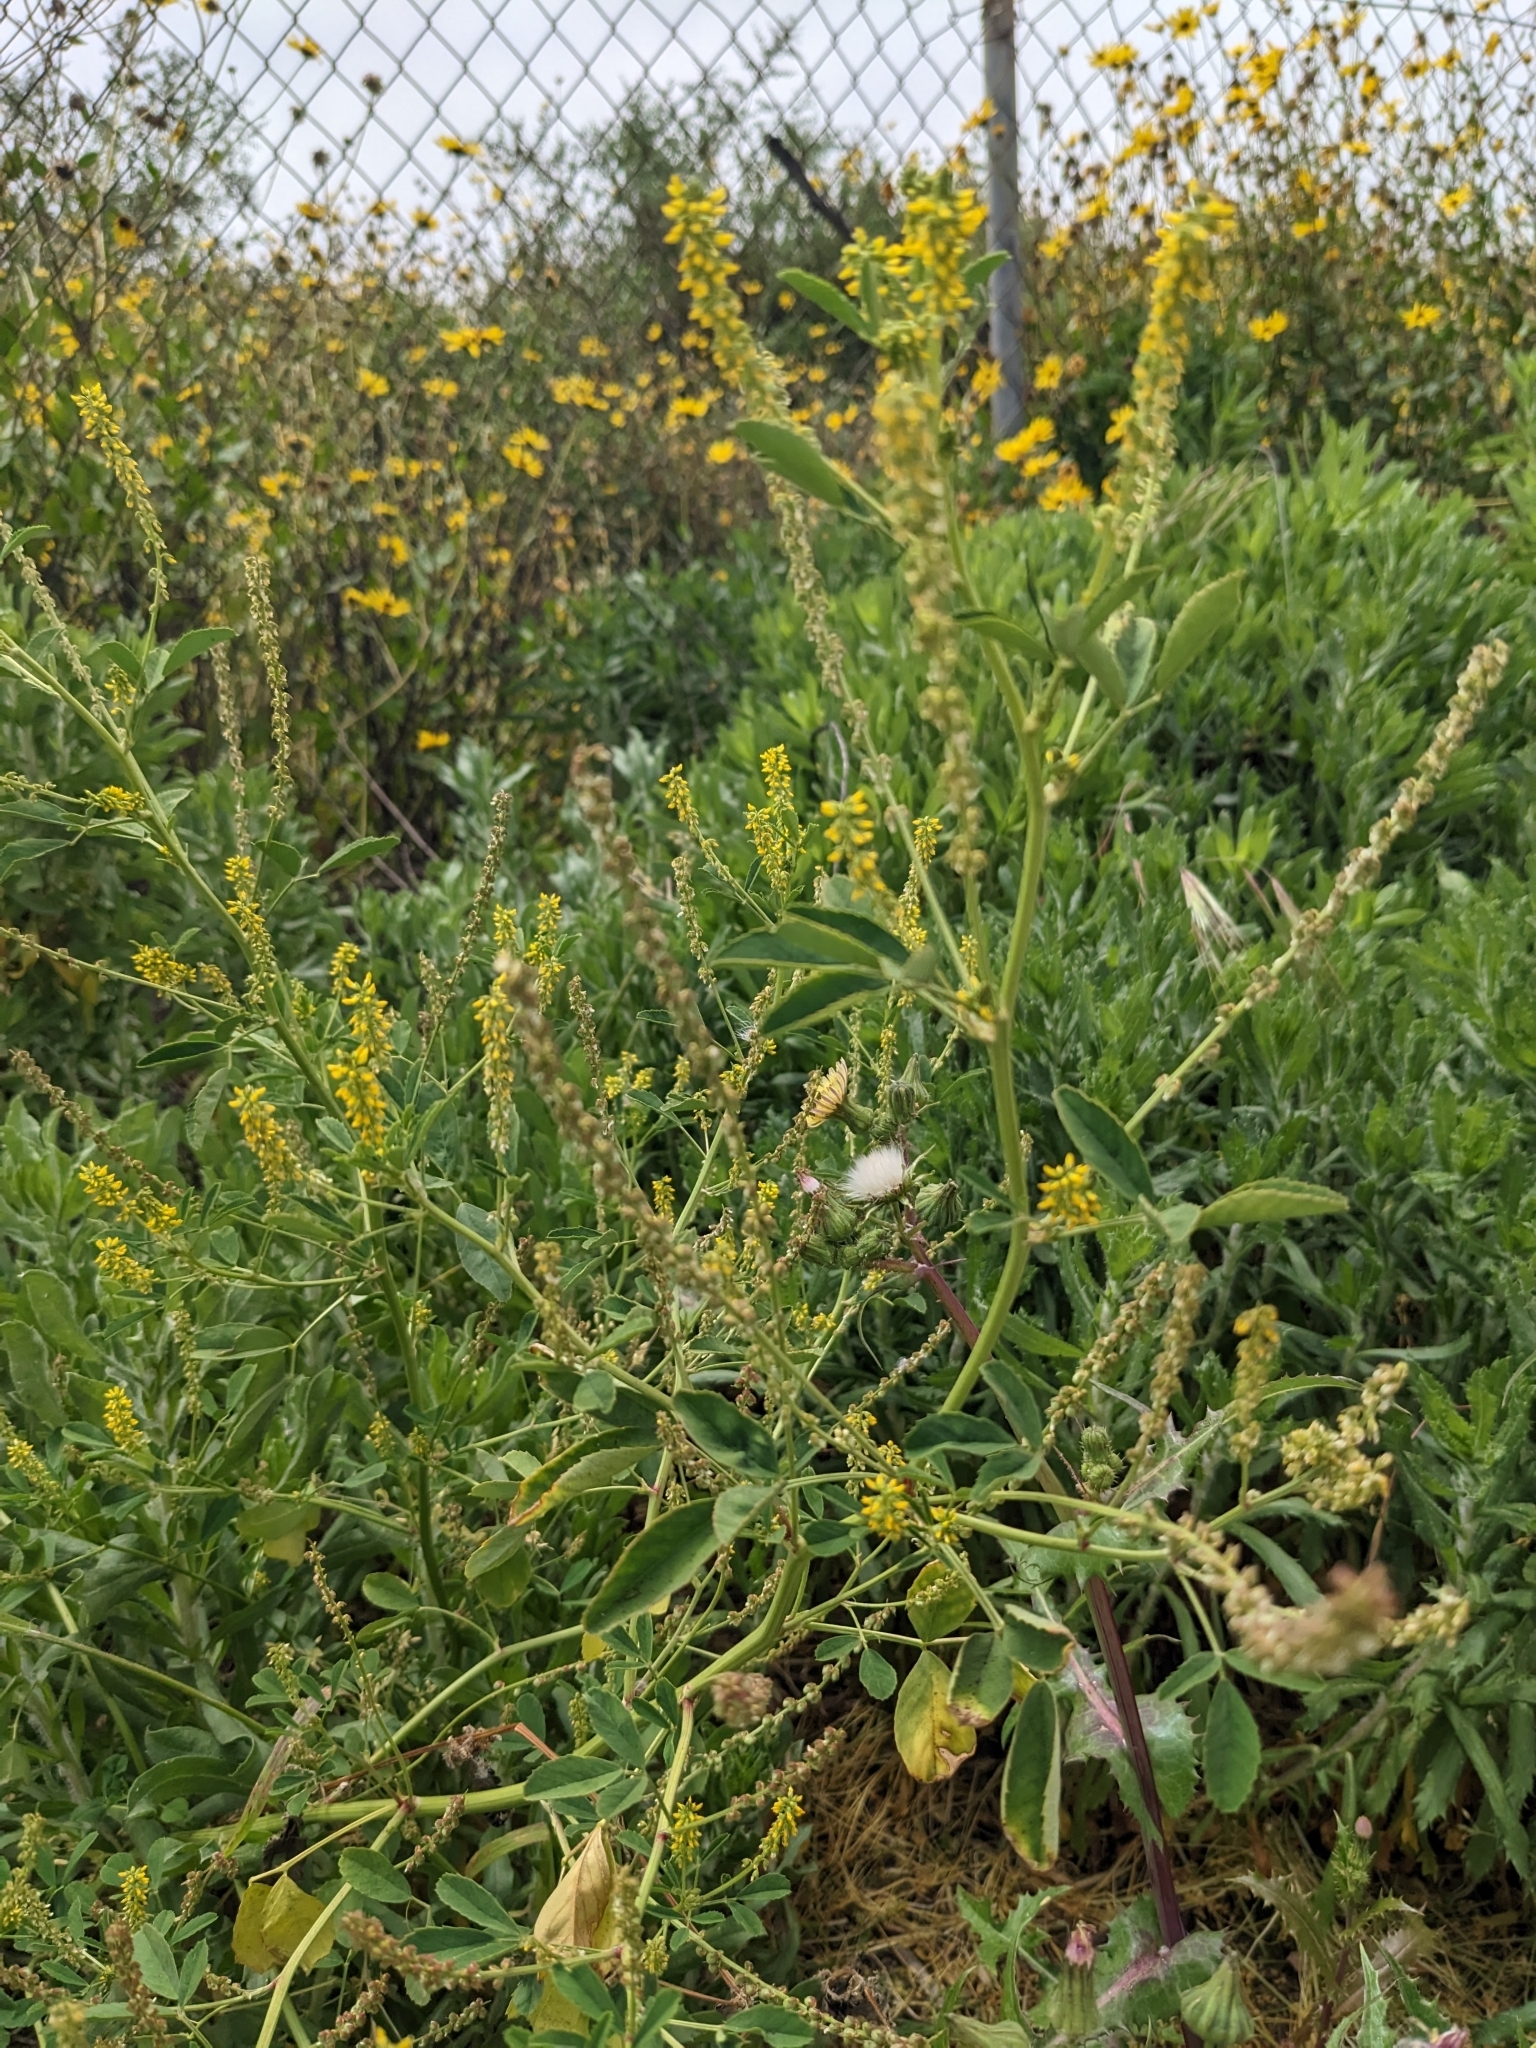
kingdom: Plantae
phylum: Tracheophyta
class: Magnoliopsida
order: Fabales
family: Fabaceae
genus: Melilotus
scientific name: Melilotus indicus
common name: Small melilot
